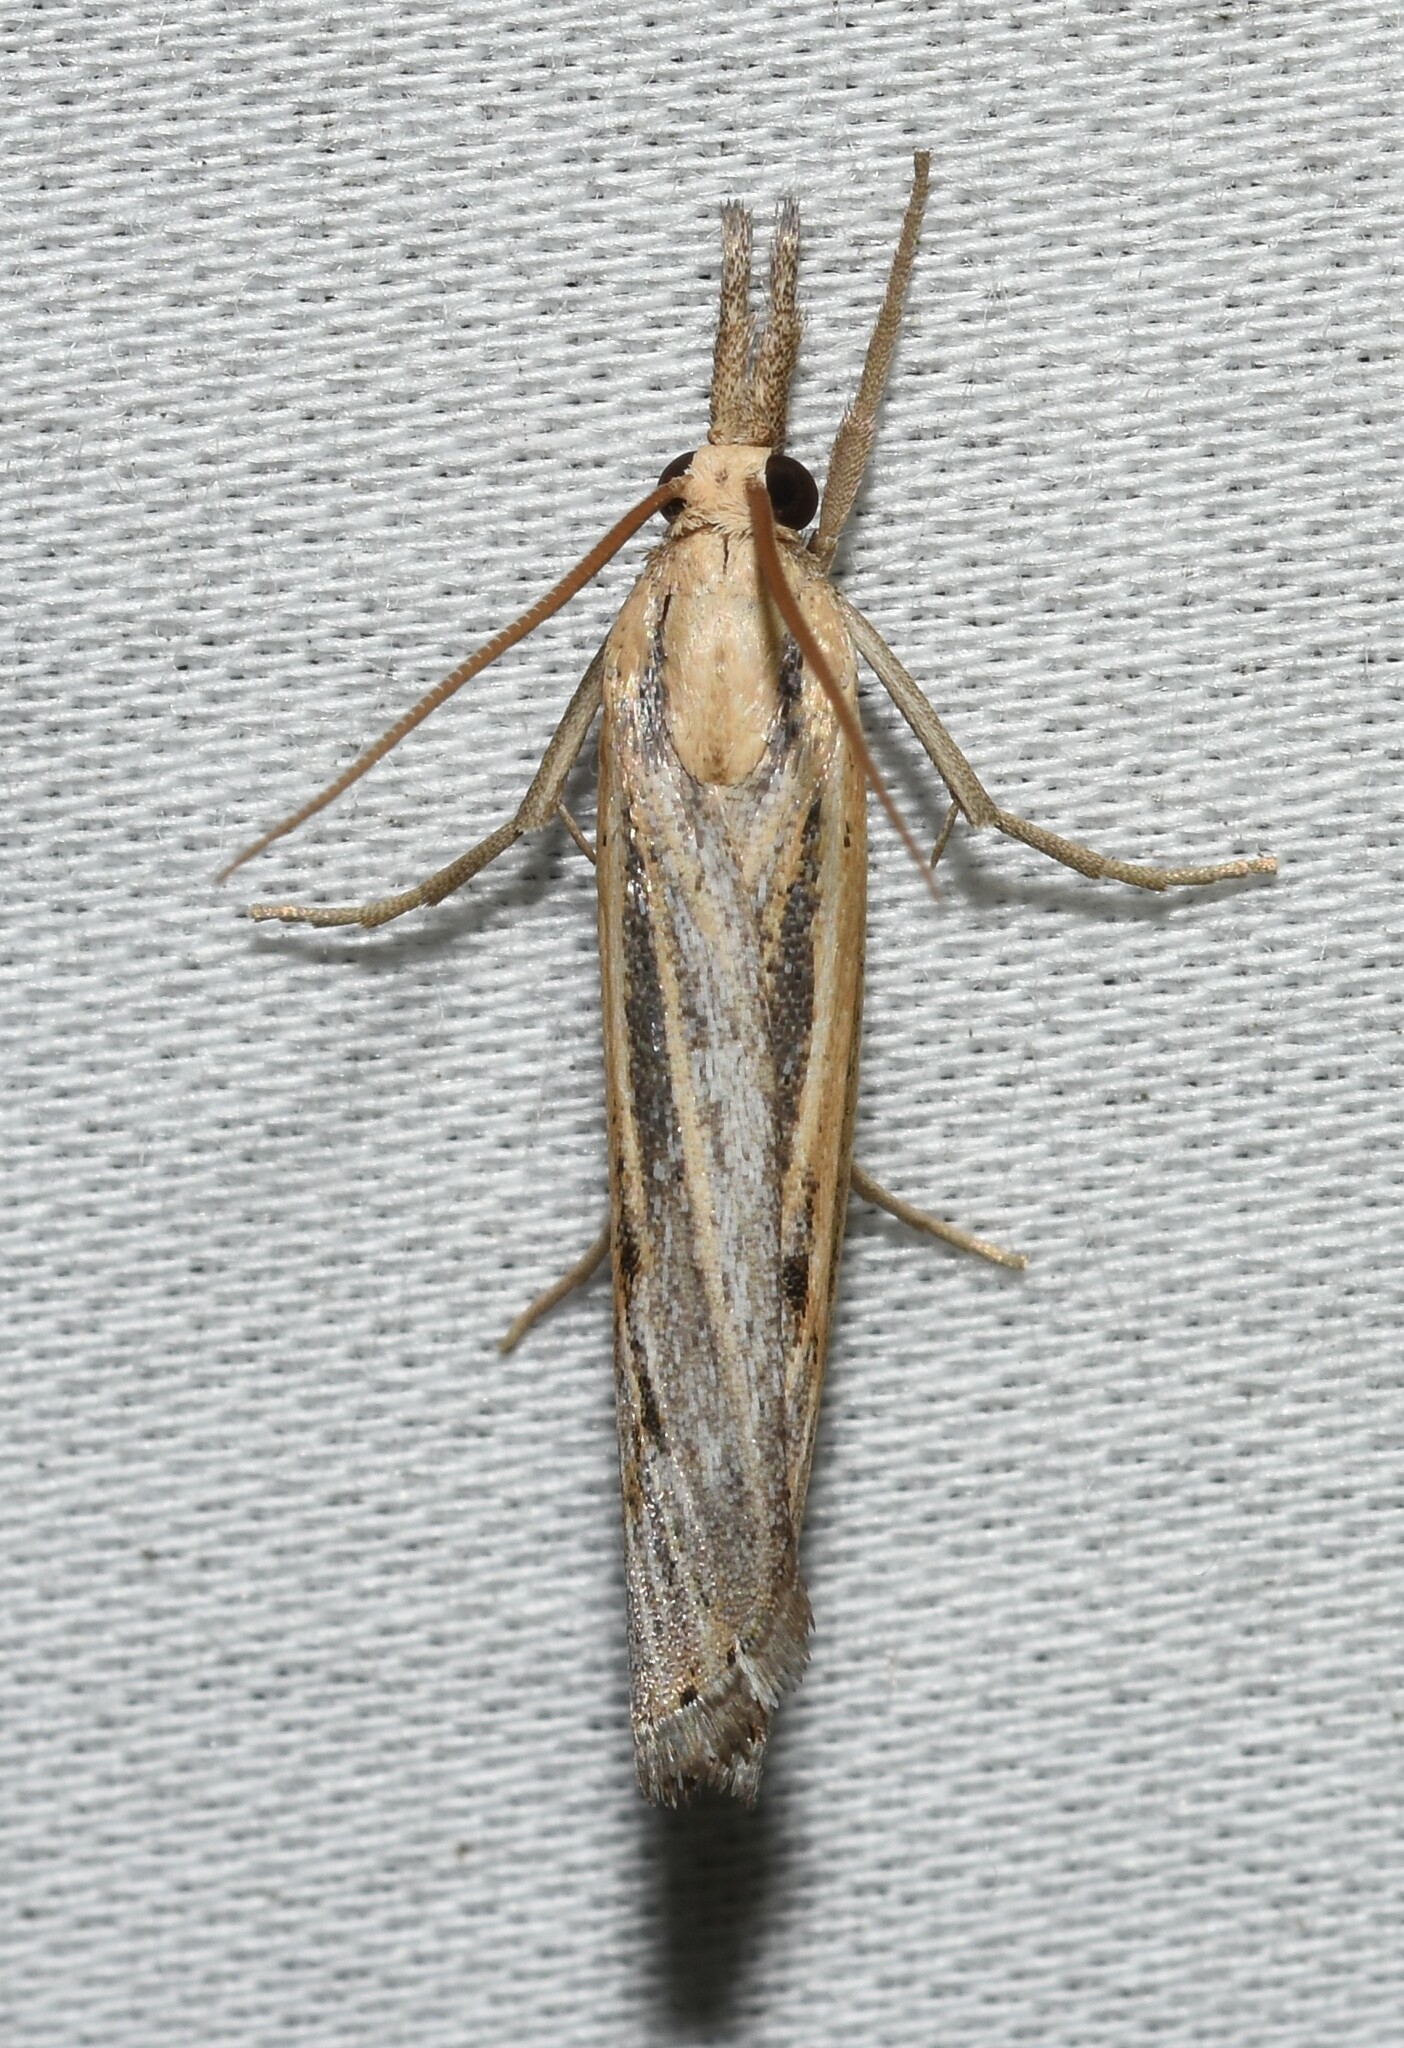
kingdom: Animalia
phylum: Arthropoda
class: Insecta
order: Lepidoptera
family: Crambidae
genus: Pediasia
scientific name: Pediasia trisecta
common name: Sod webworm moth
